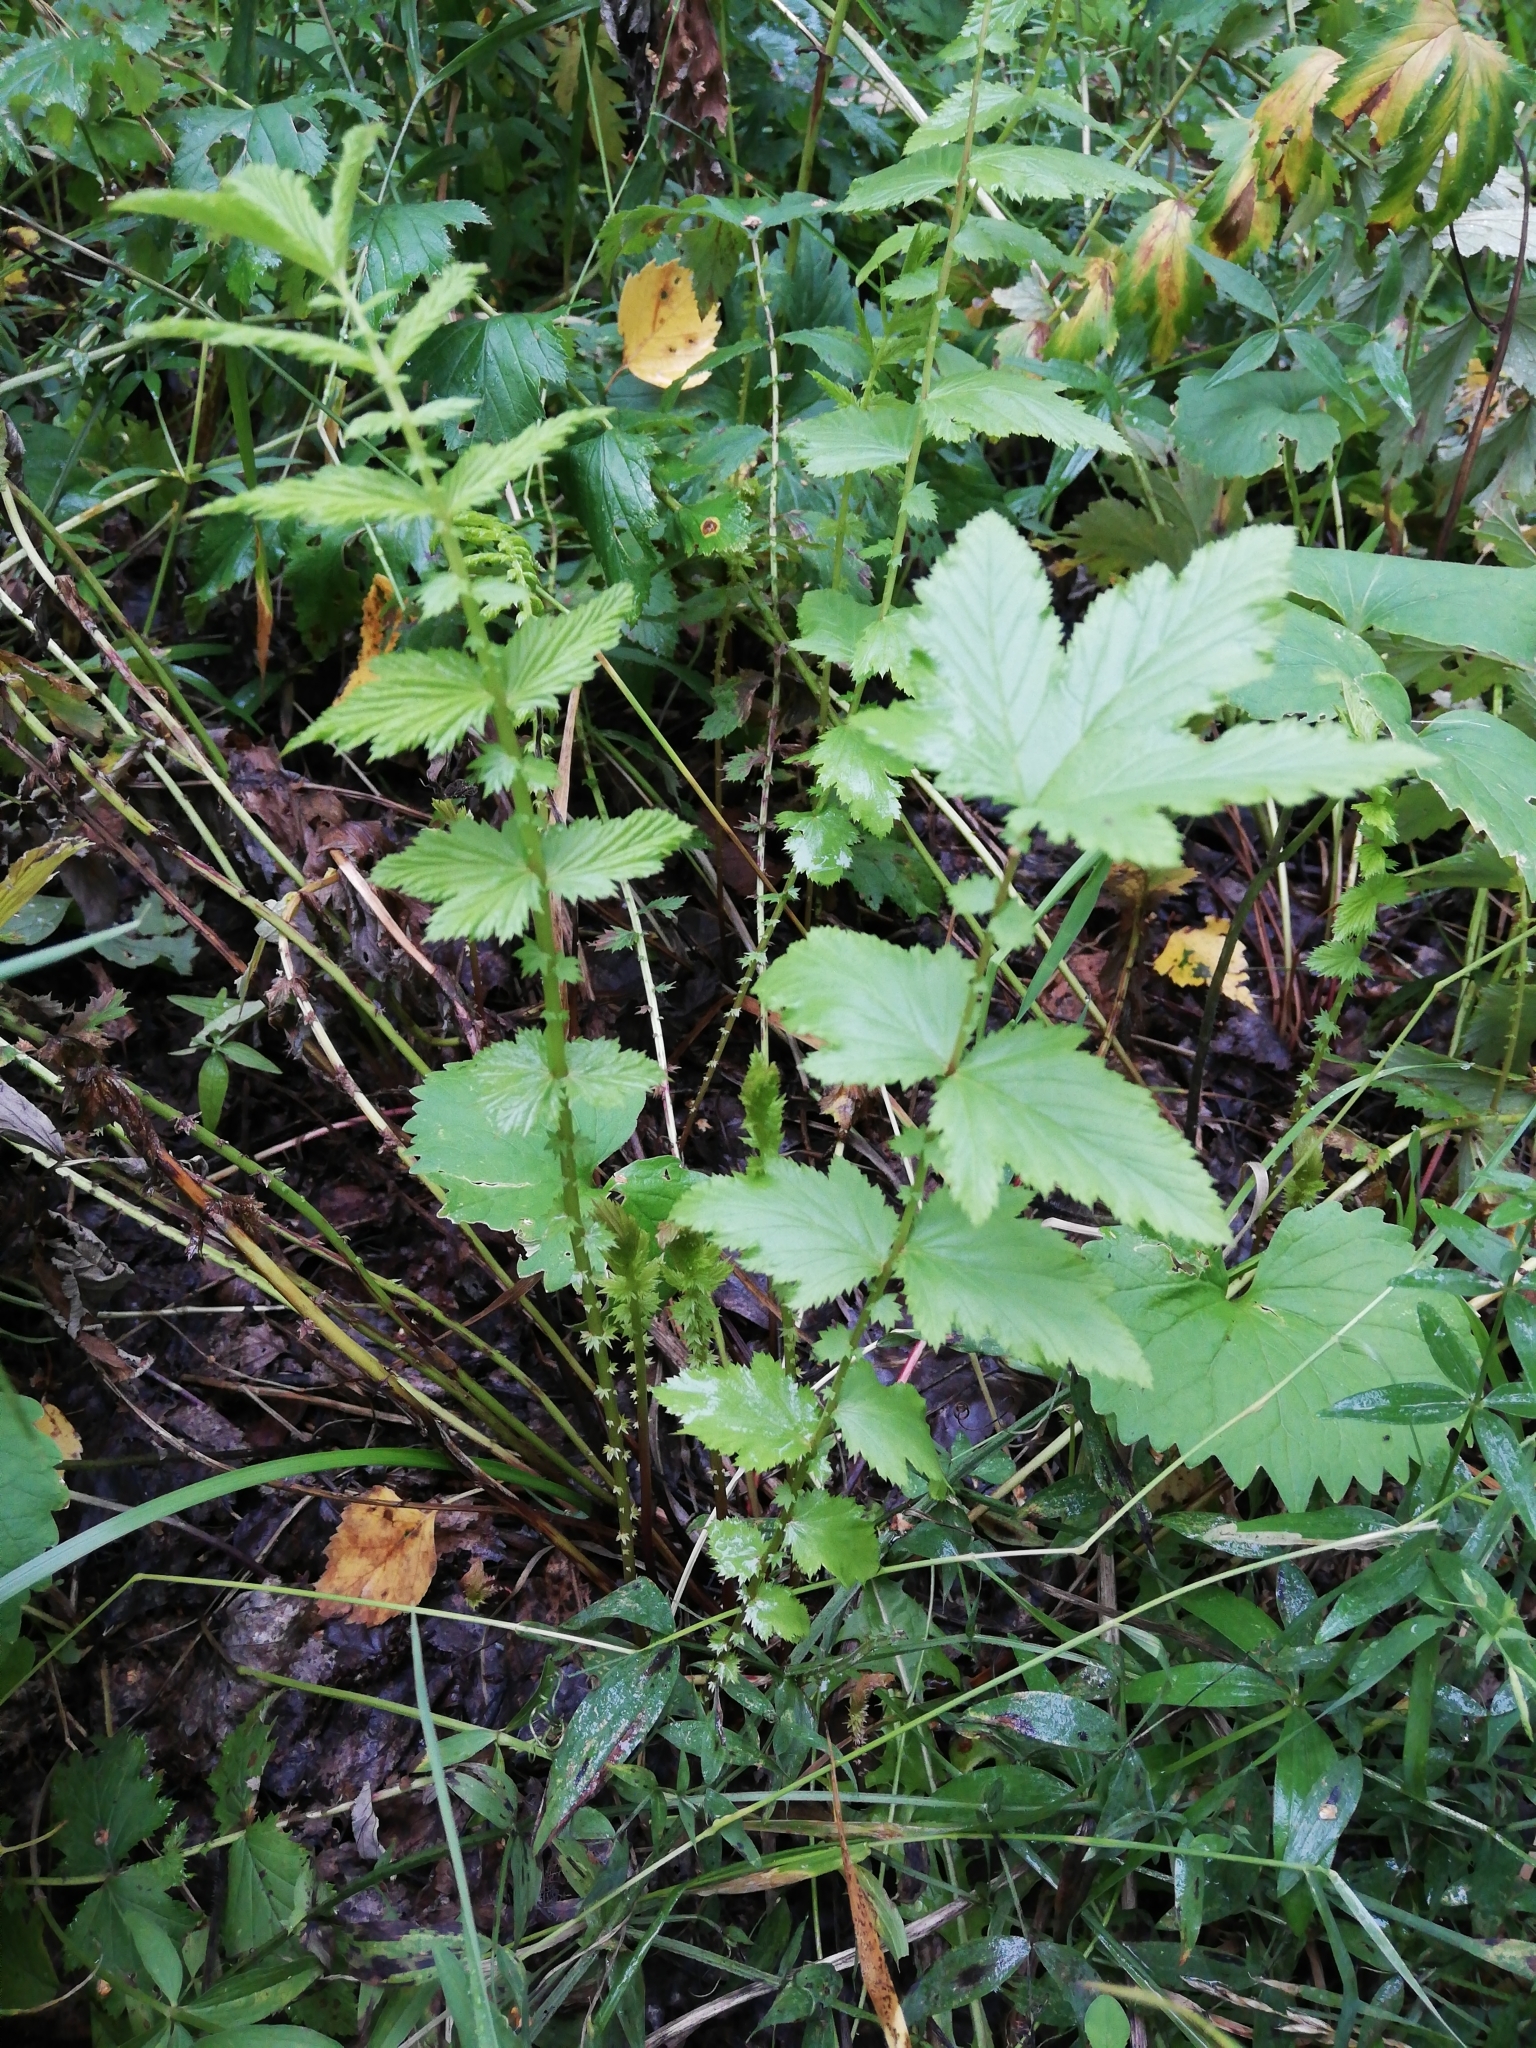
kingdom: Plantae
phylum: Tracheophyta
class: Magnoliopsida
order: Rosales
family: Rosaceae
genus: Filipendula
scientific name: Filipendula ulmaria
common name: Meadowsweet
